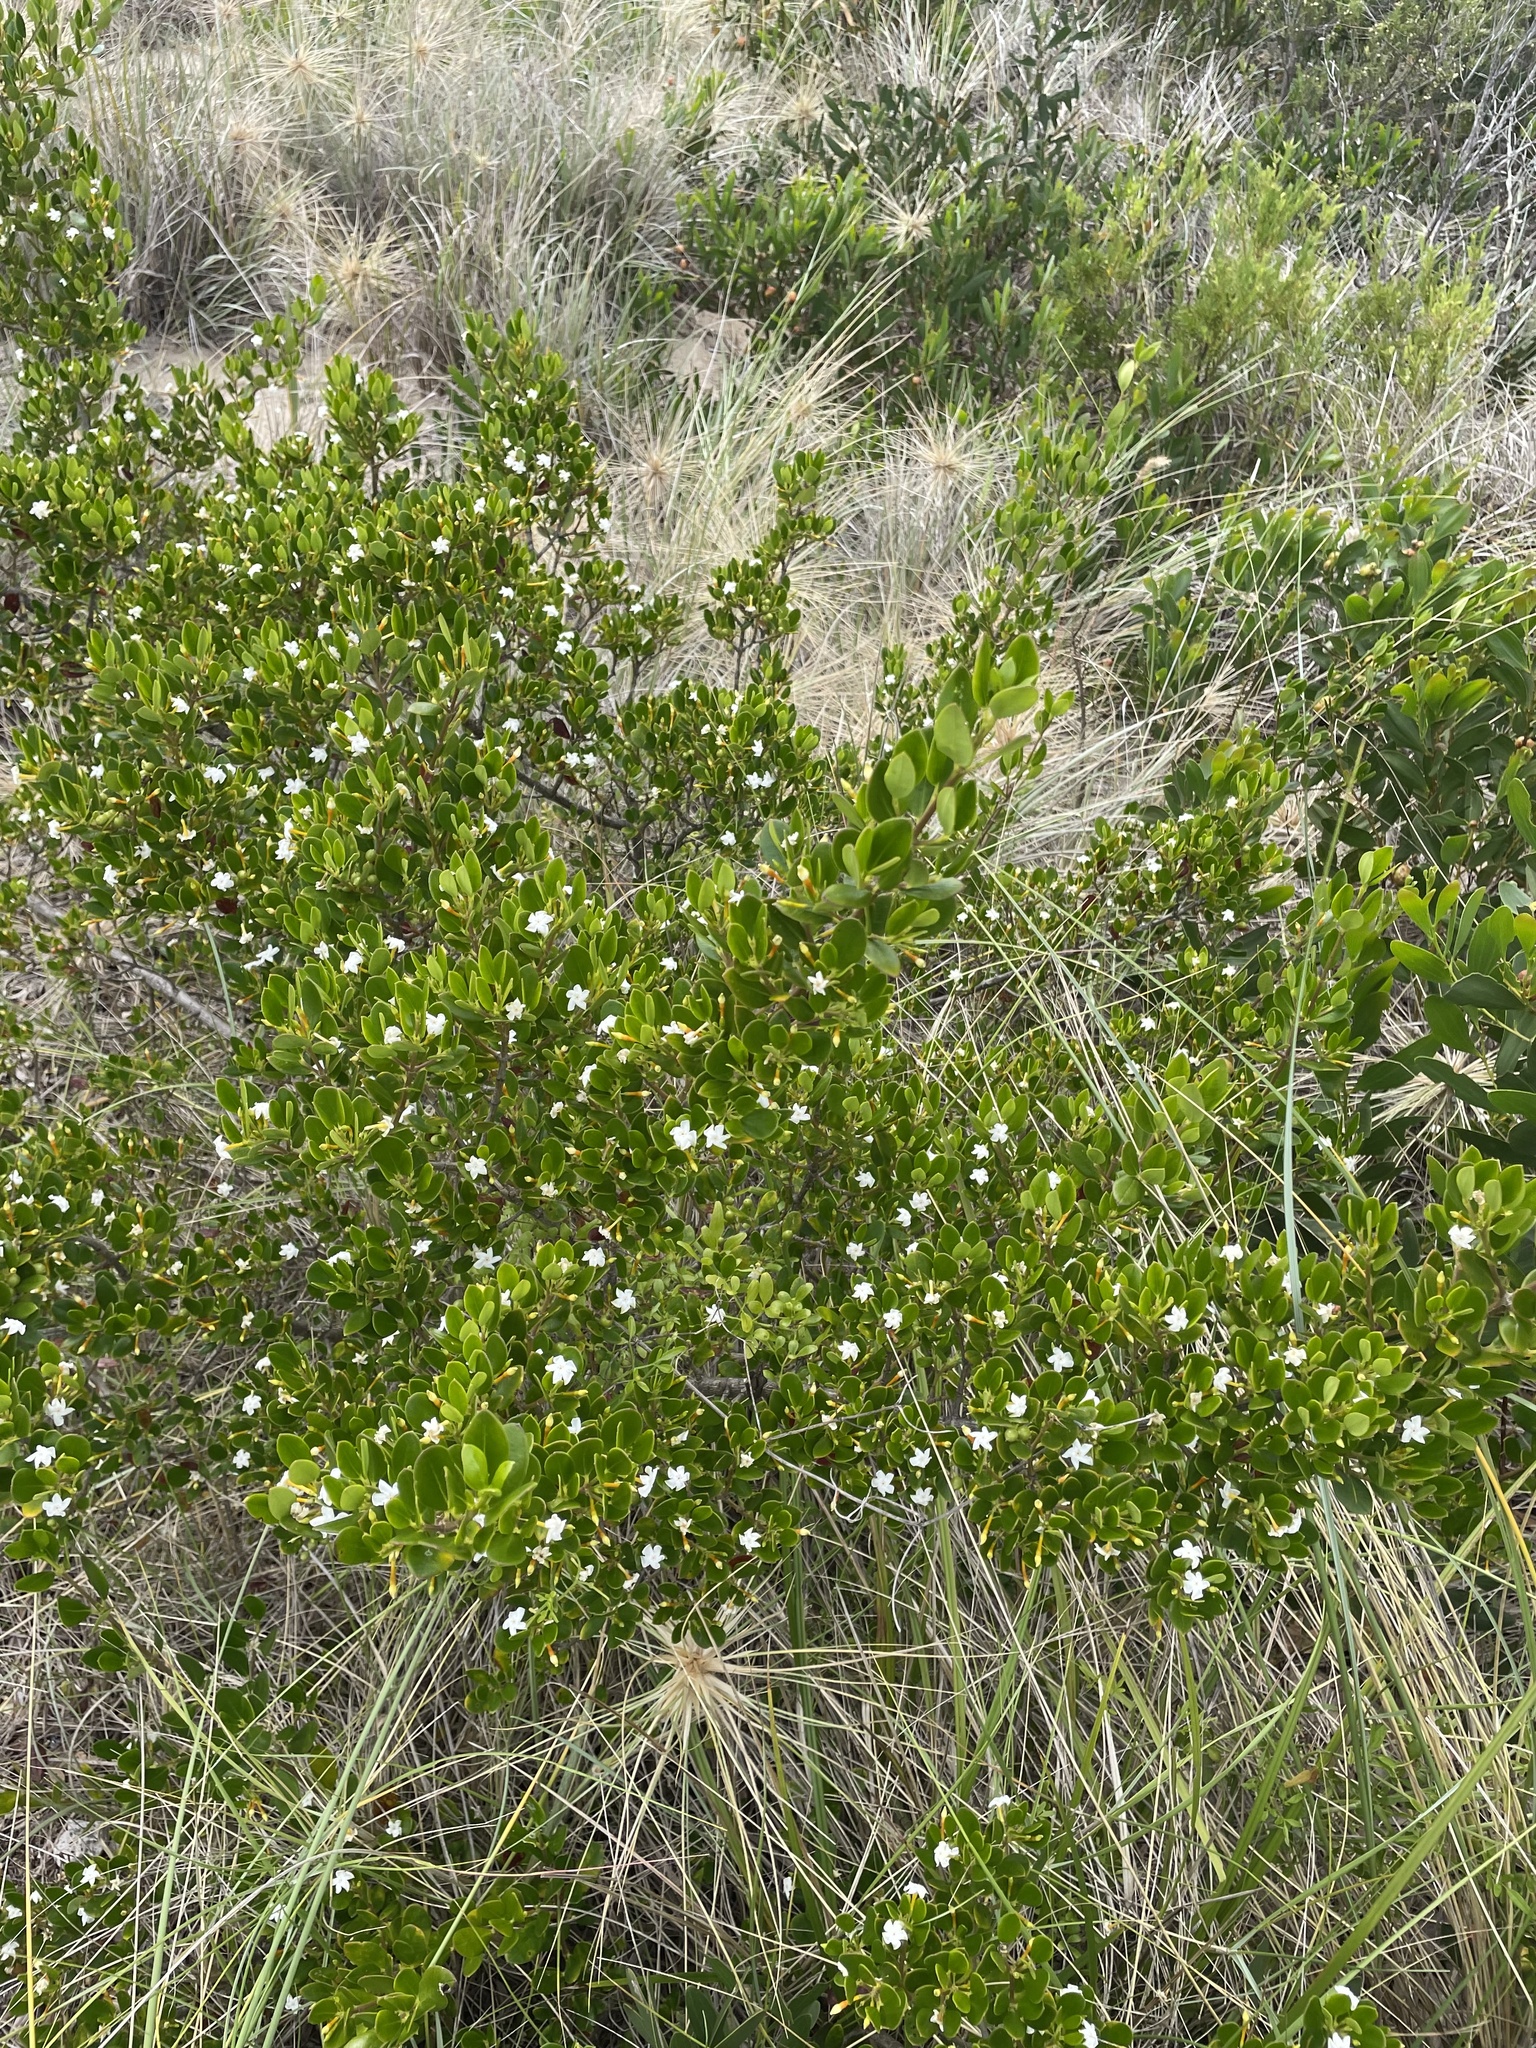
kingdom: Plantae
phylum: Tracheophyta
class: Magnoliopsida
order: Gentianales
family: Apocynaceae
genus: Alyxia
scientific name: Alyxia buxifolia
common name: Dysentery-bush
